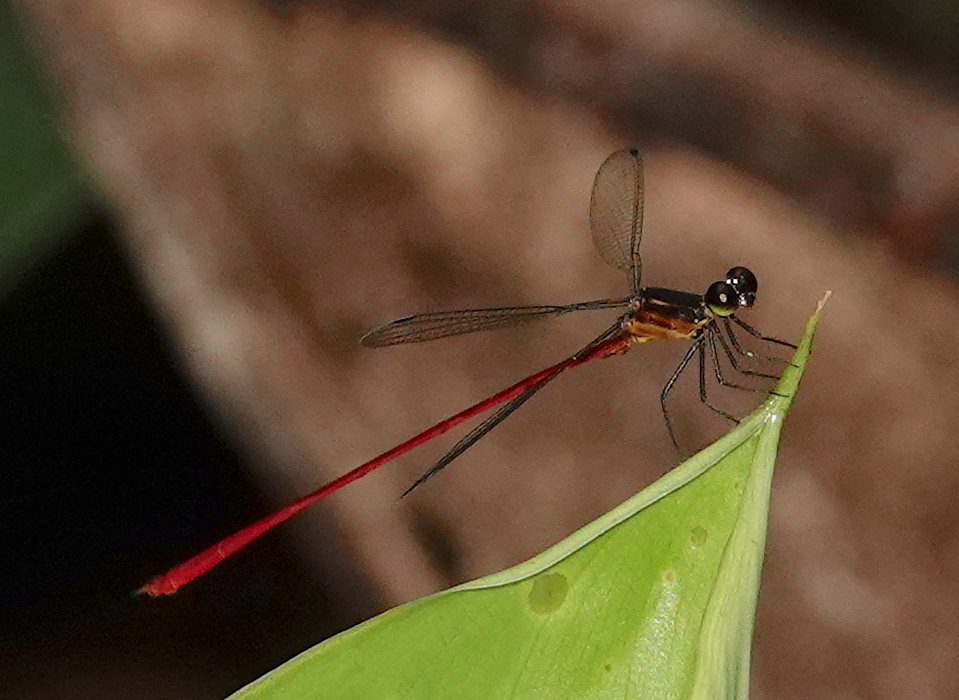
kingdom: Animalia
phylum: Arthropoda
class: Insecta
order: Odonata
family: Heteragrionidae
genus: Heteragrion
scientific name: Heteragrion erythrogastrum
